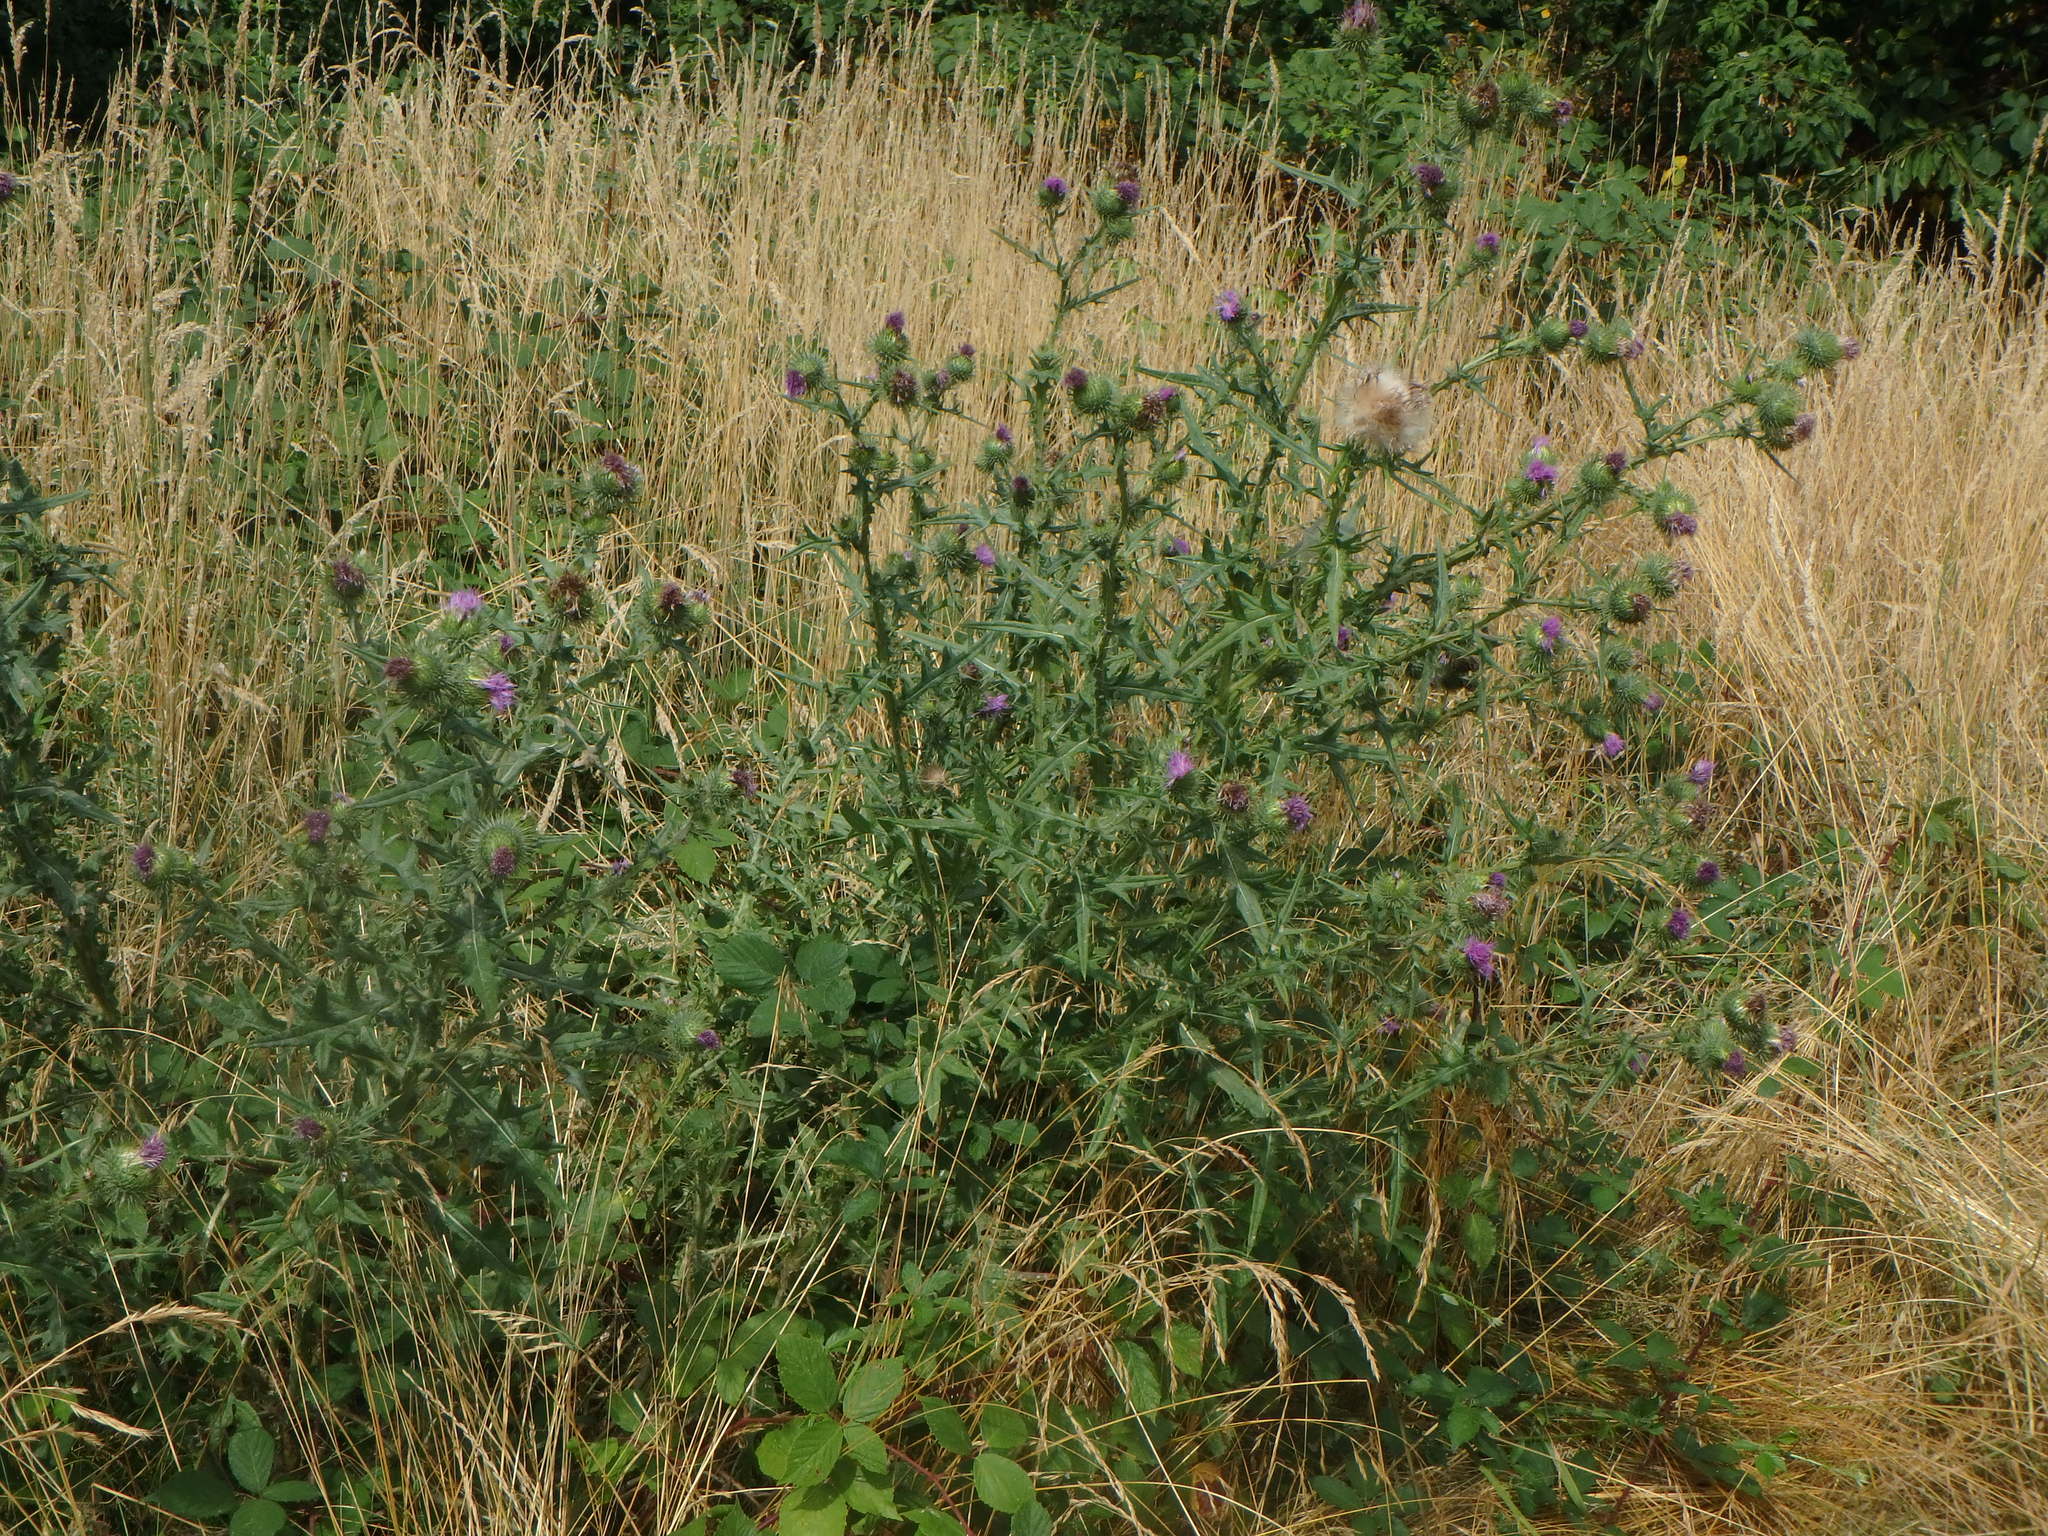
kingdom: Plantae
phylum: Tracheophyta
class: Magnoliopsida
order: Asterales
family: Asteraceae
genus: Cirsium
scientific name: Cirsium vulgare
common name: Bull thistle
